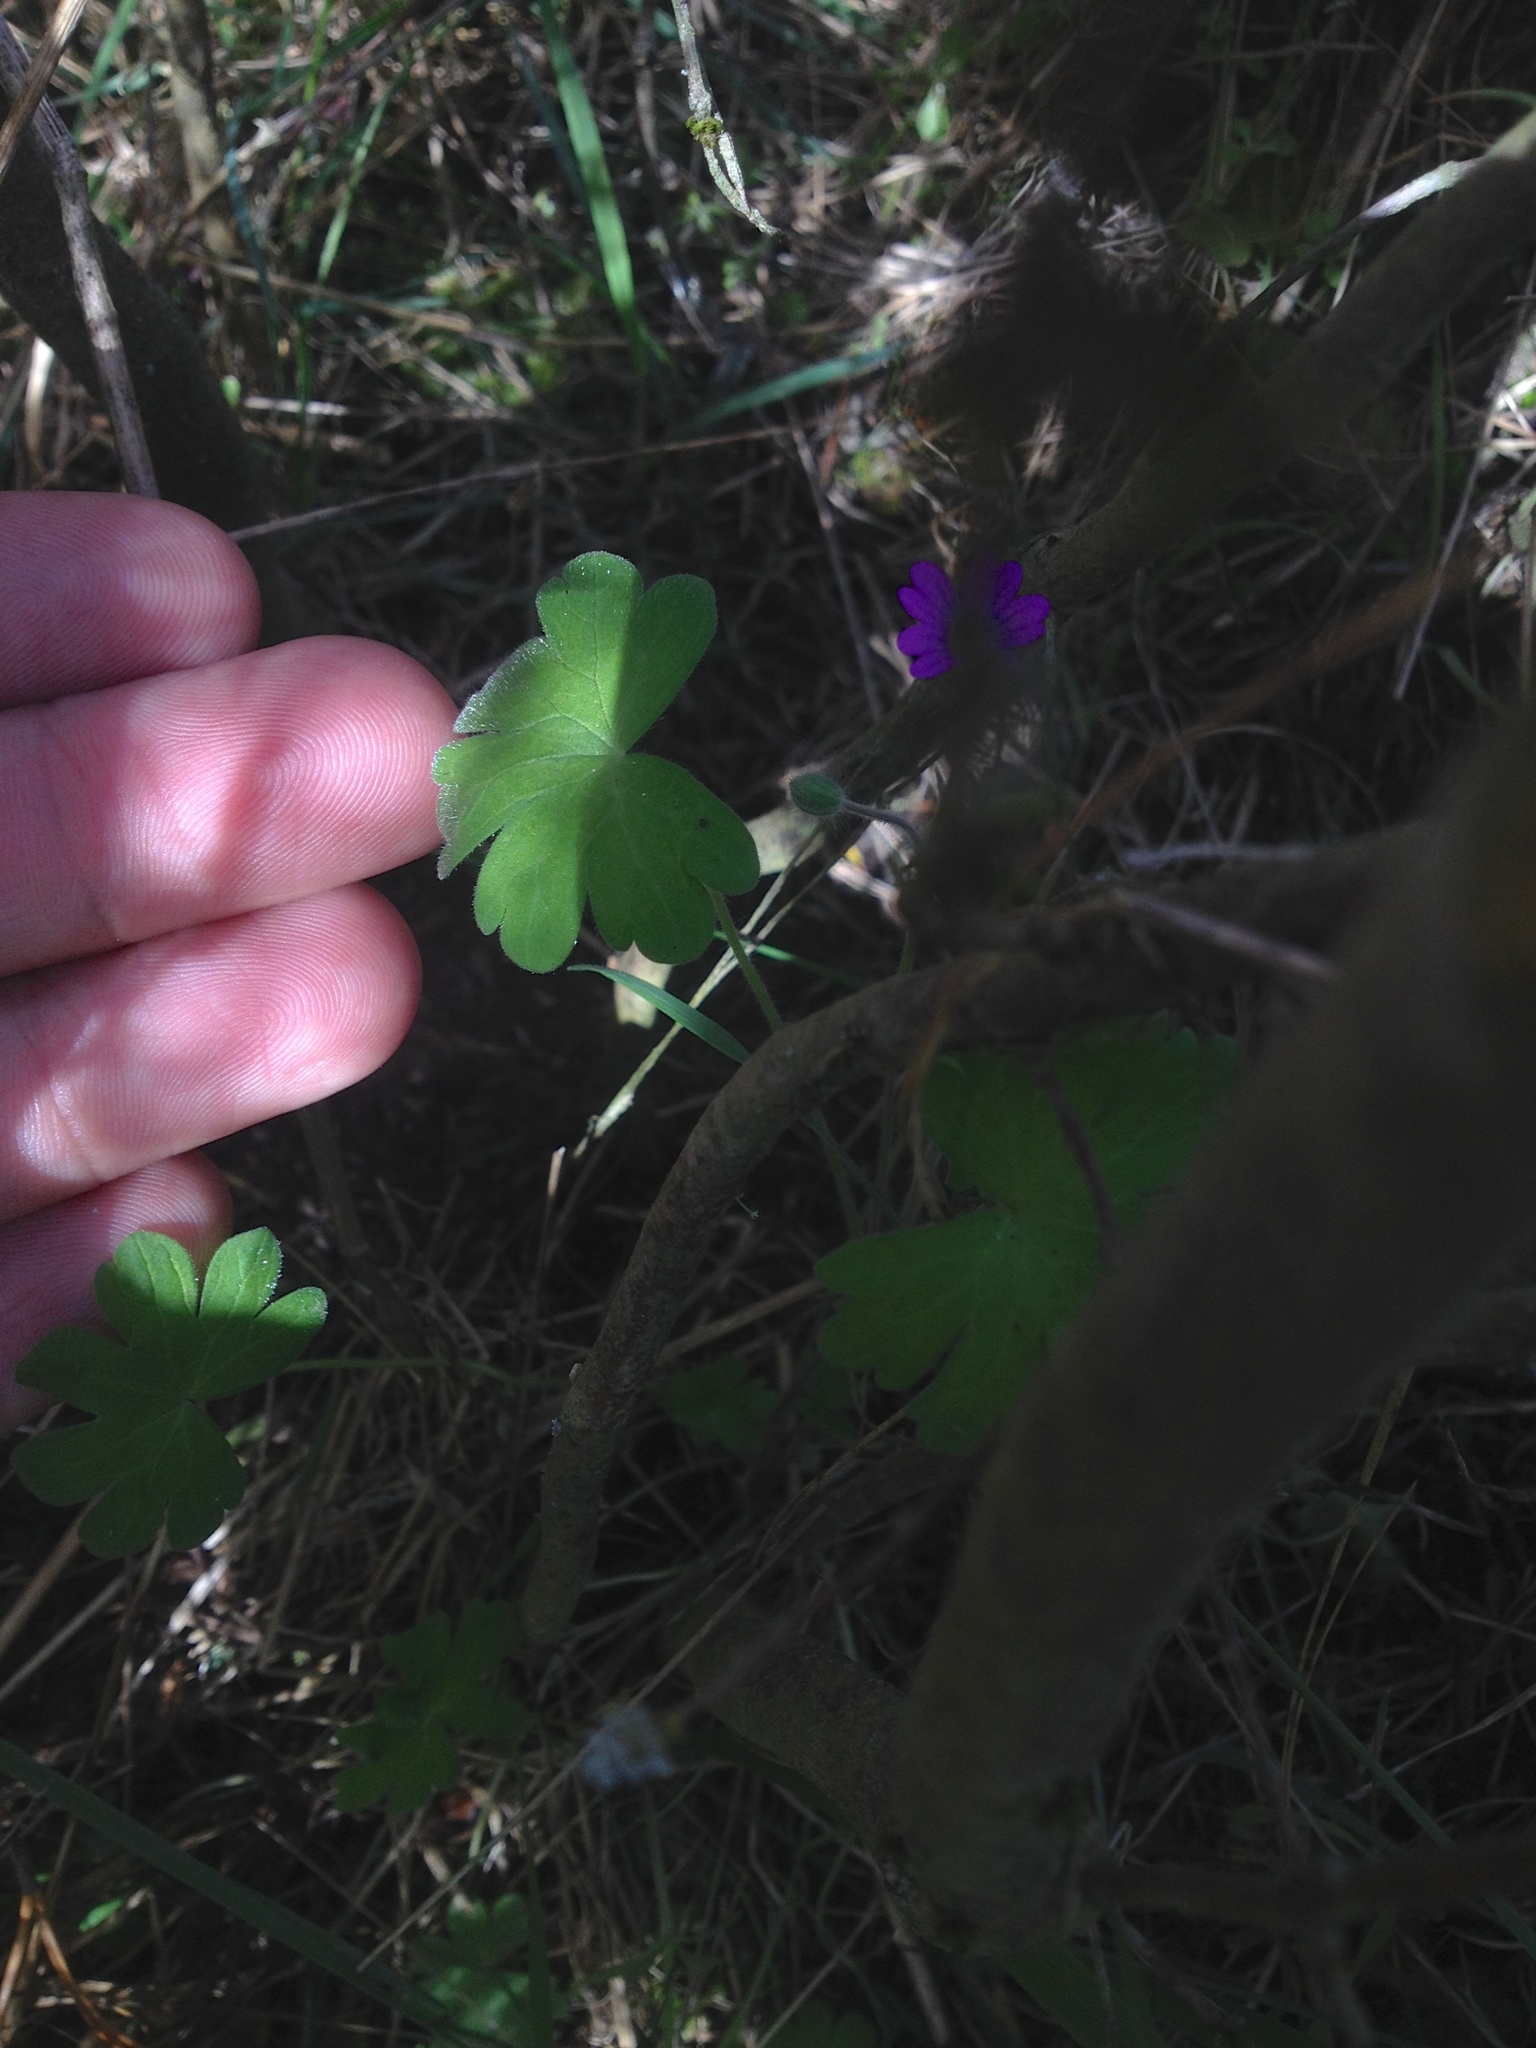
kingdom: Plantae
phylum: Tracheophyta
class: Magnoliopsida
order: Geraniales
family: Geraniaceae
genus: Geranium
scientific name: Geranium molle
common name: Dove's-foot crane's-bill
